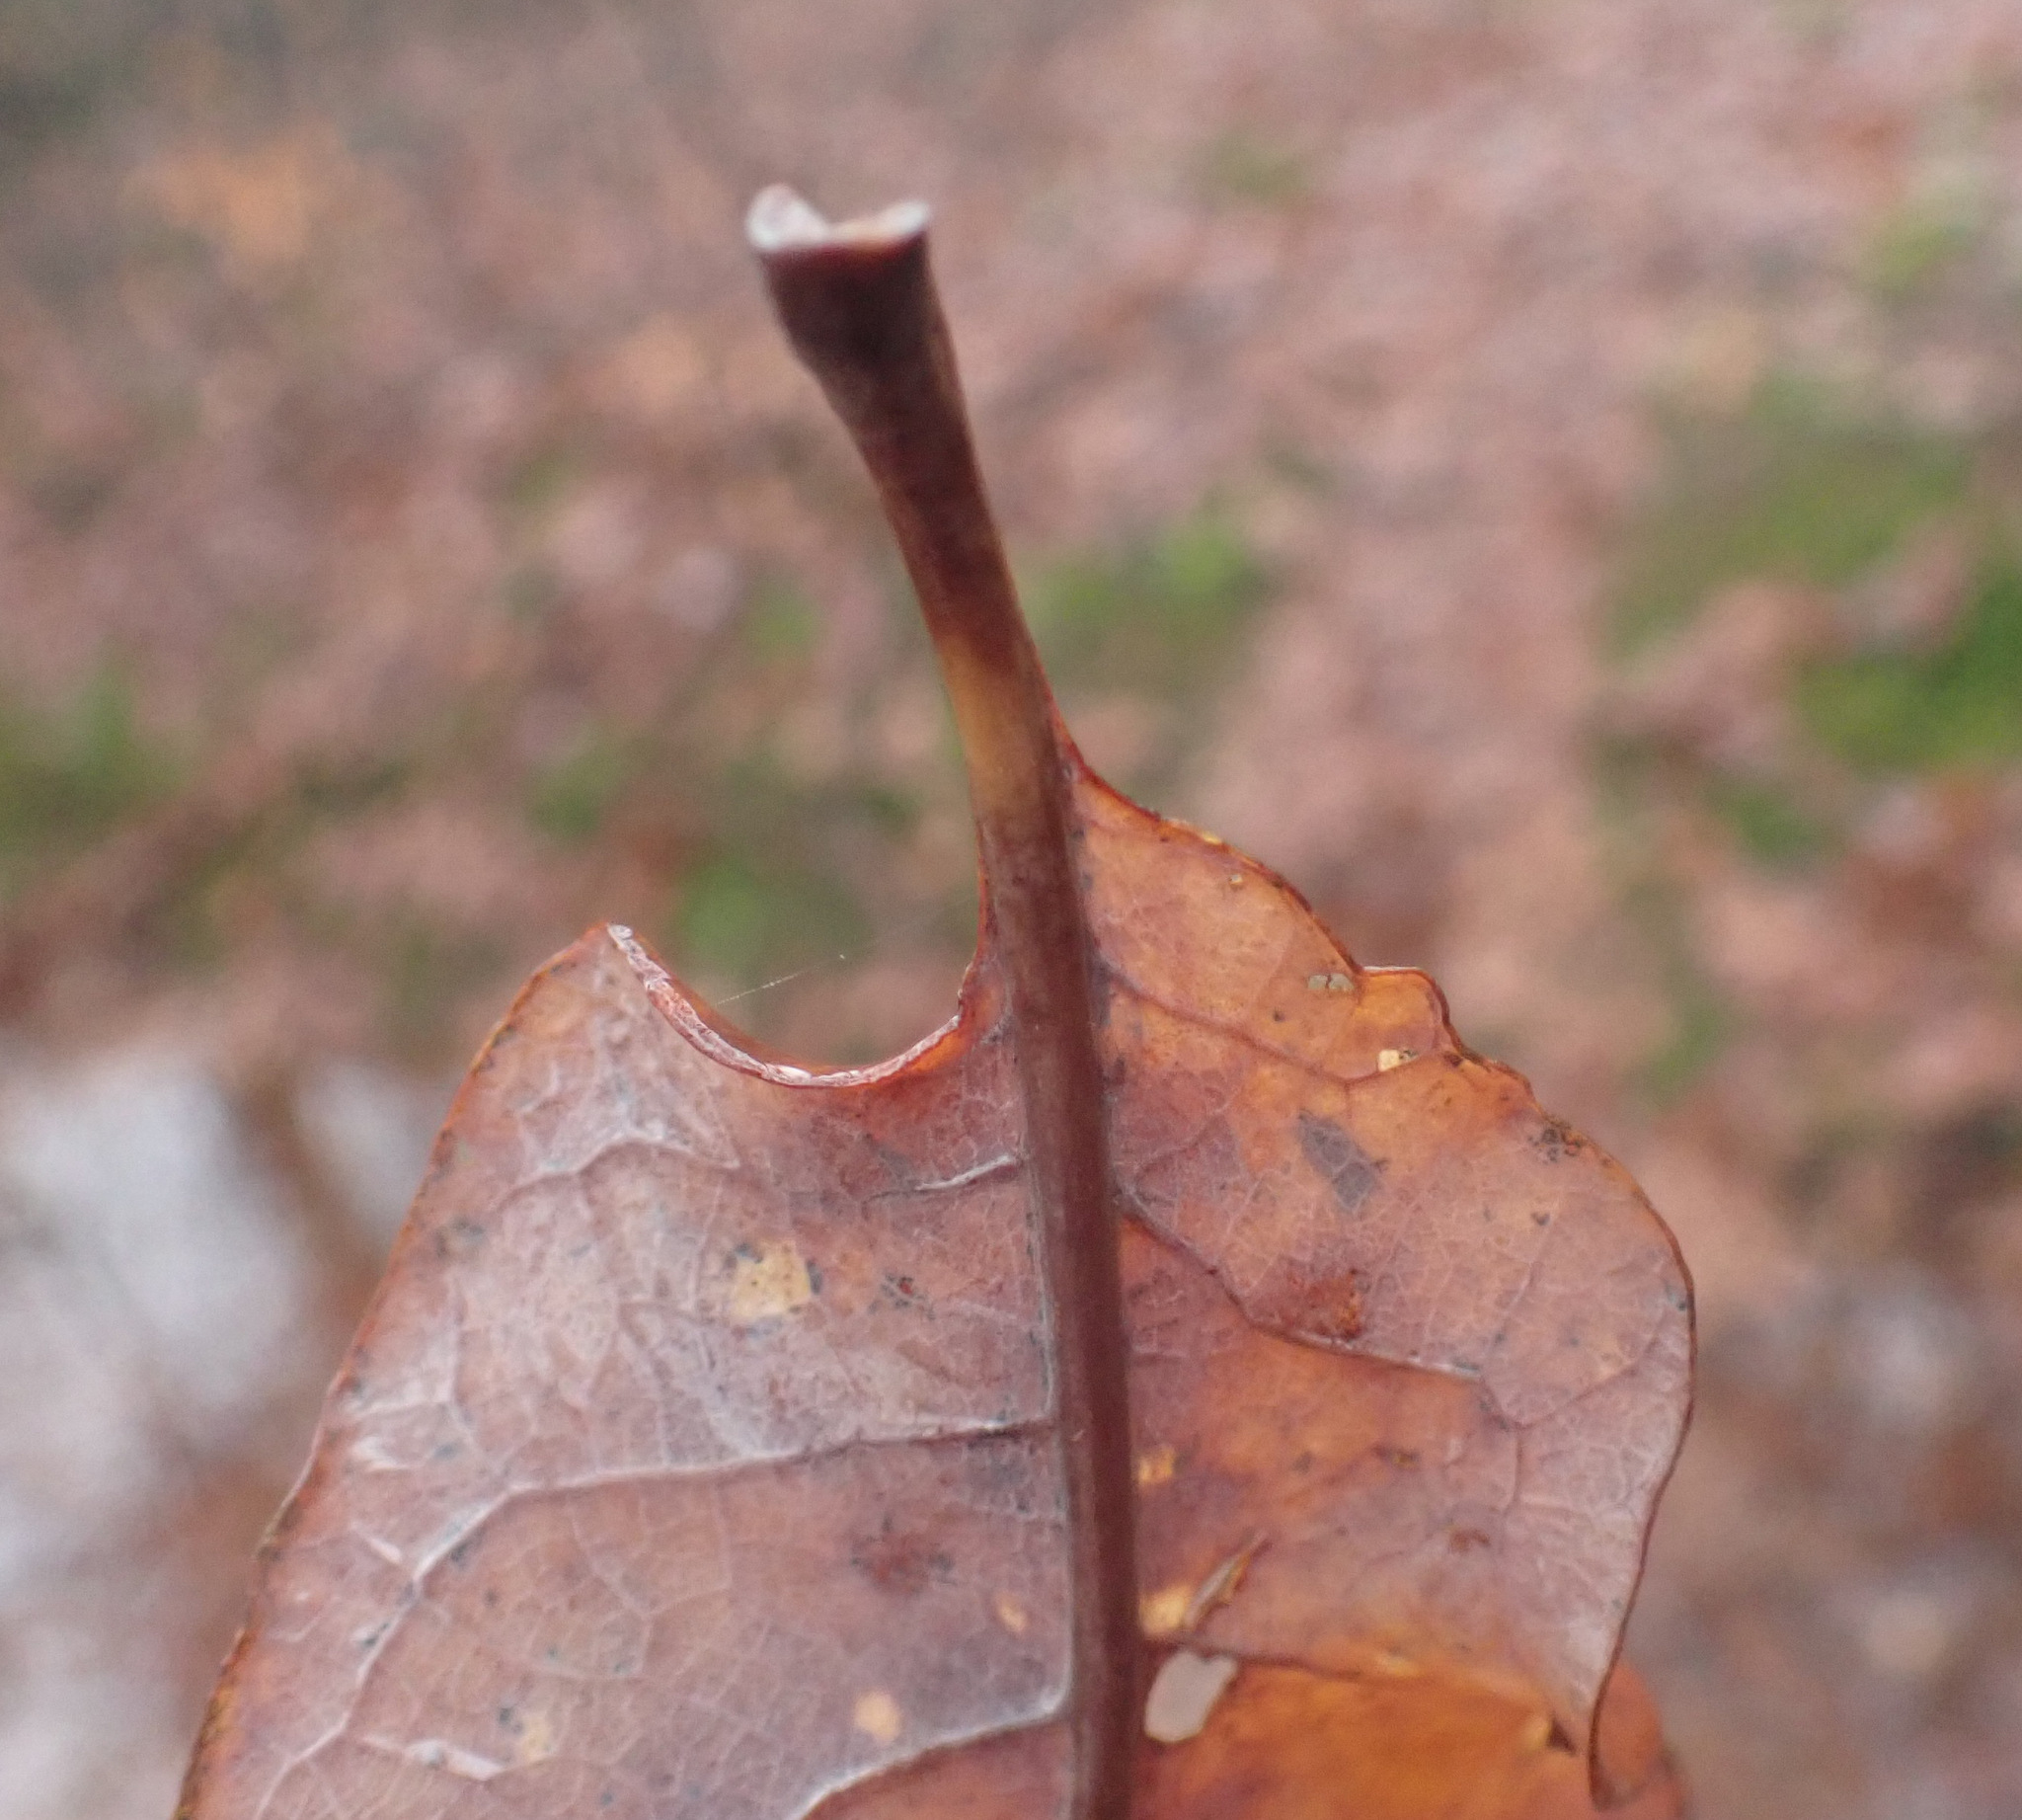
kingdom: Plantae
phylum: Tracheophyta
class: Magnoliopsida
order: Fagales
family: Fagaceae
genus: Quercus
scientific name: Quercus rosacea
